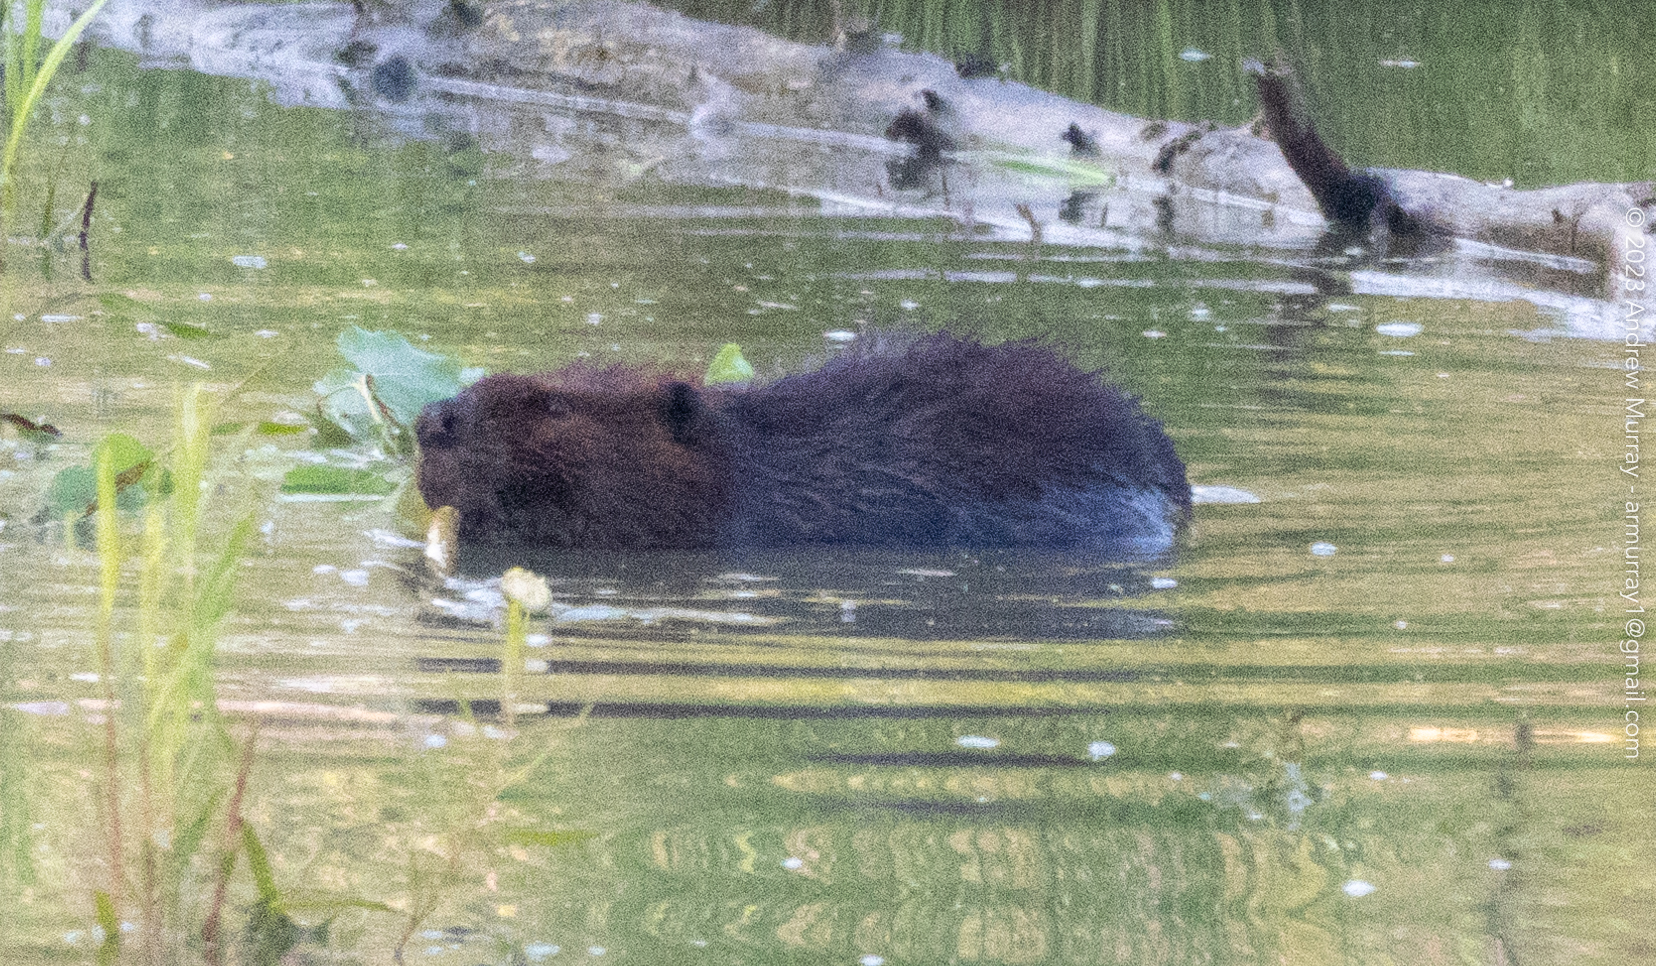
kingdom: Animalia
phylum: Chordata
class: Mammalia
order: Rodentia
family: Castoridae
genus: Castor
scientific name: Castor canadensis
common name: American beaver
